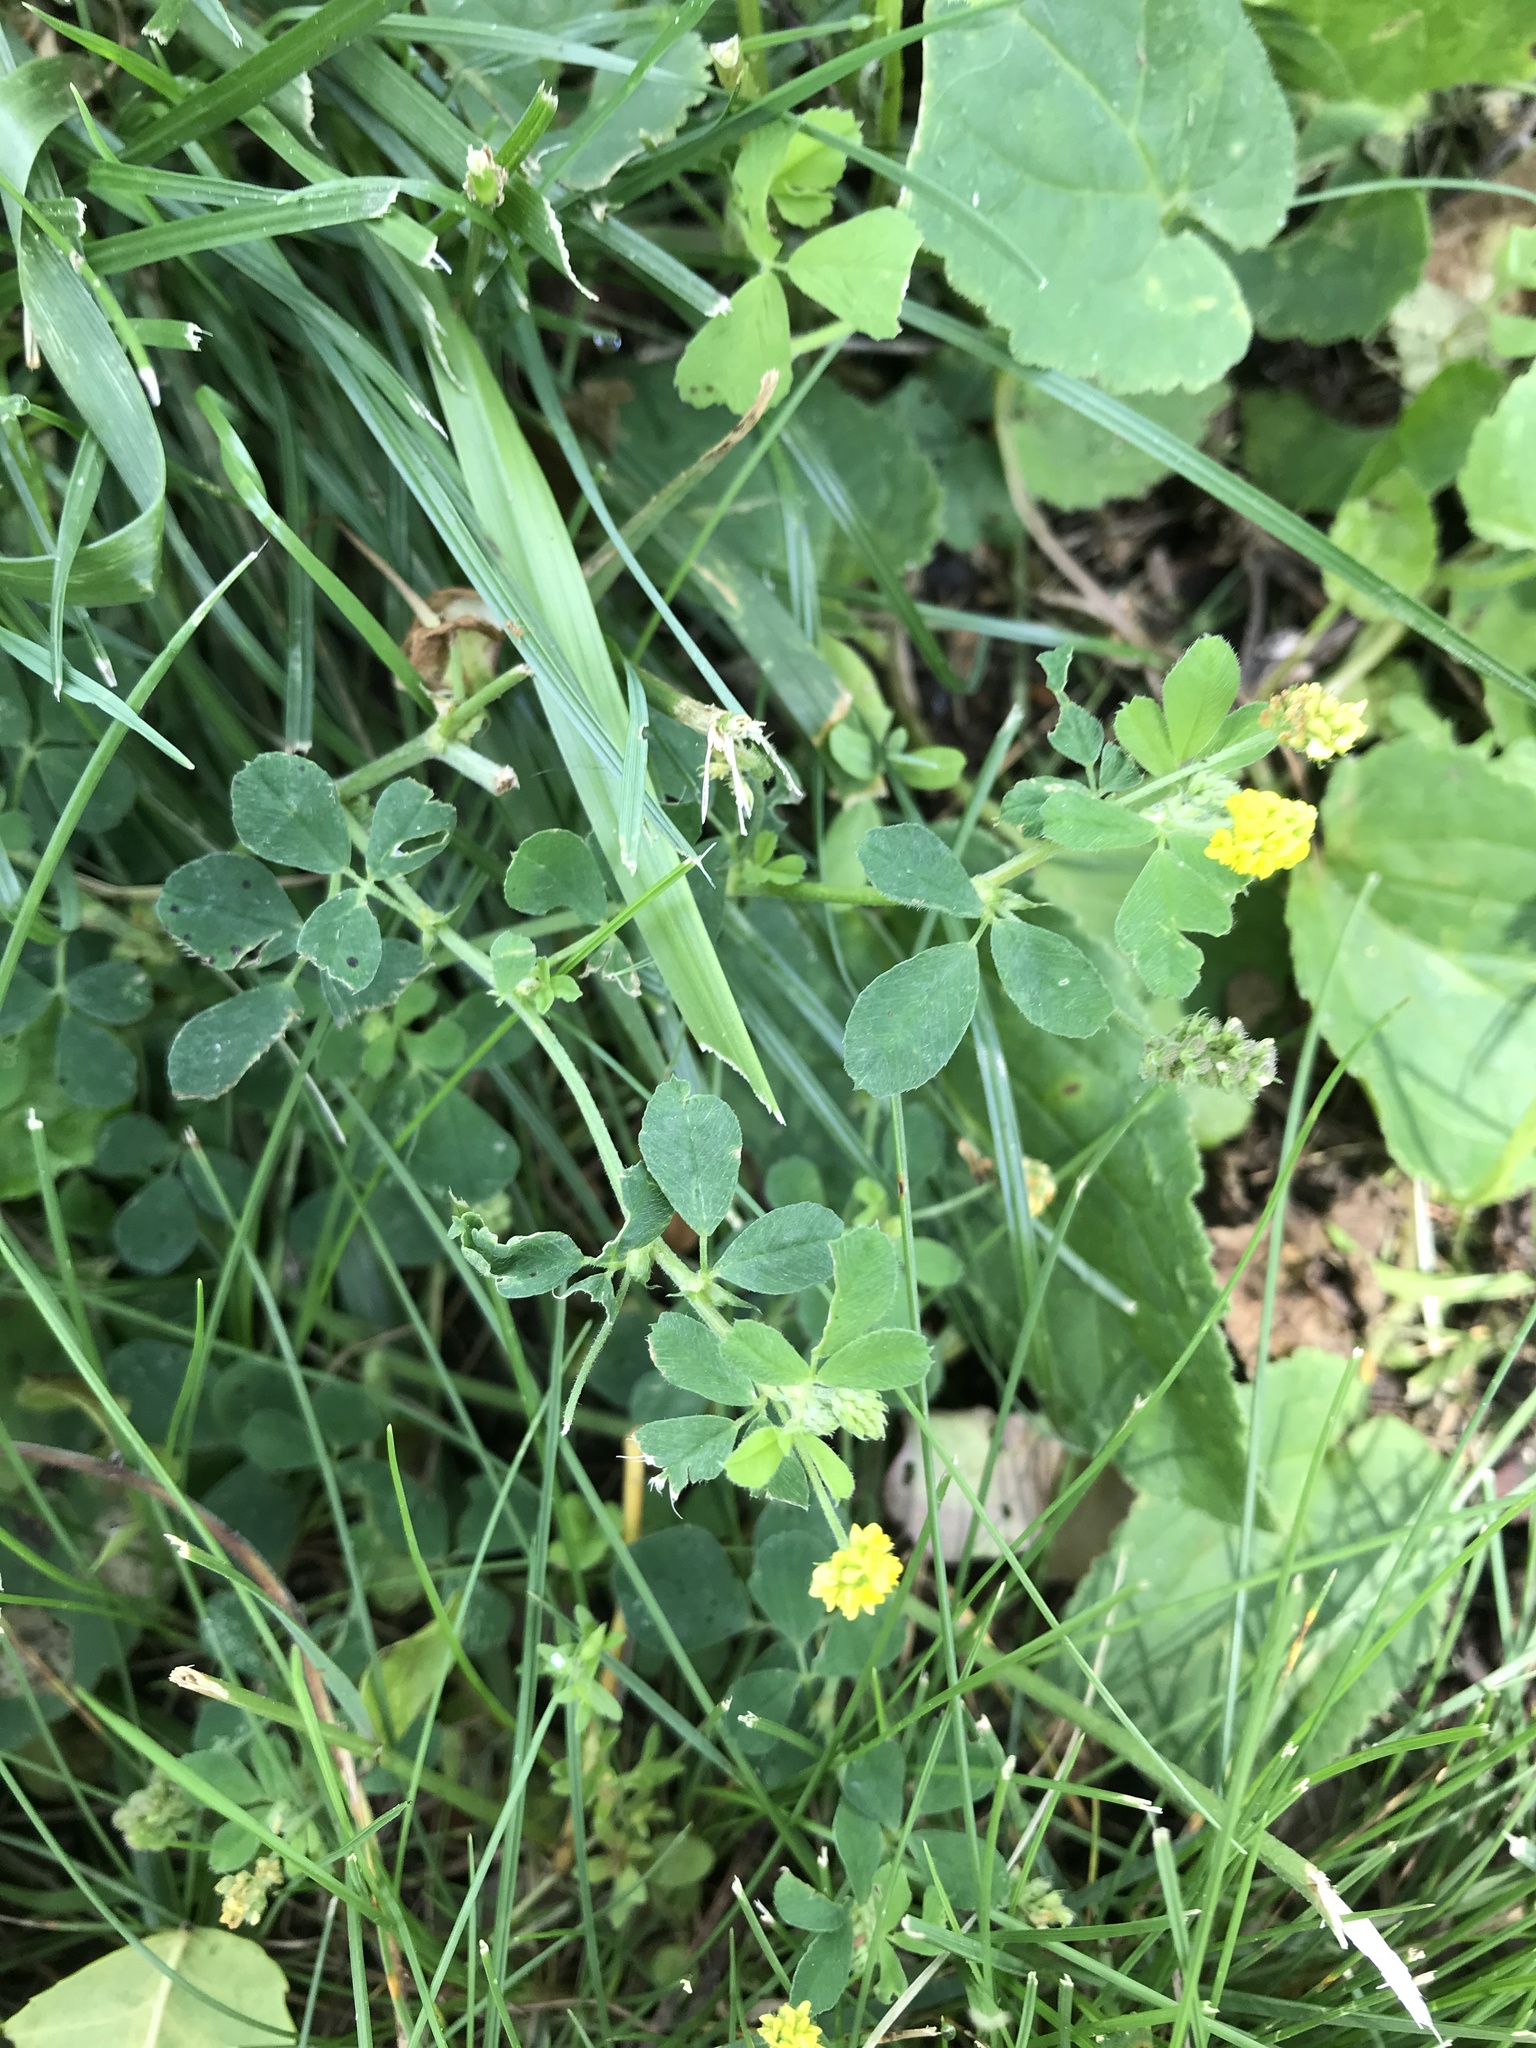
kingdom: Plantae
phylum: Tracheophyta
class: Magnoliopsida
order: Fabales
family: Fabaceae
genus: Medicago
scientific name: Medicago lupulina
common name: Black medick
